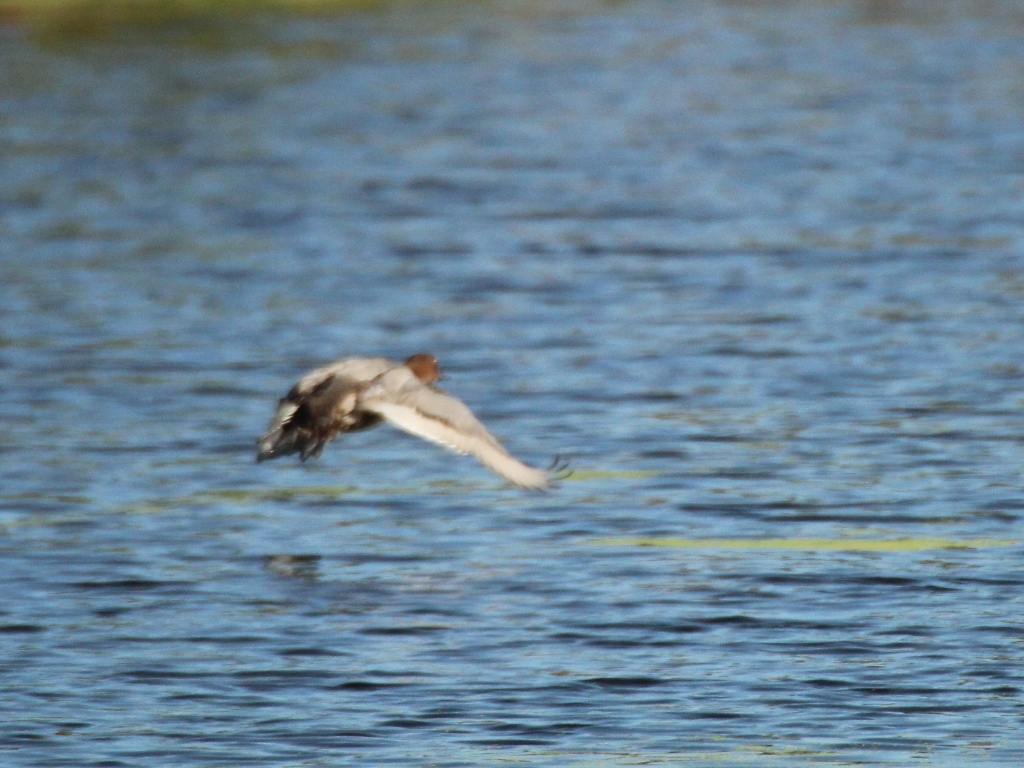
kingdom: Animalia
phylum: Chordata
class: Aves
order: Anseriformes
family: Anatidae
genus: Aythya
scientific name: Aythya ferina
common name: Common pochard
